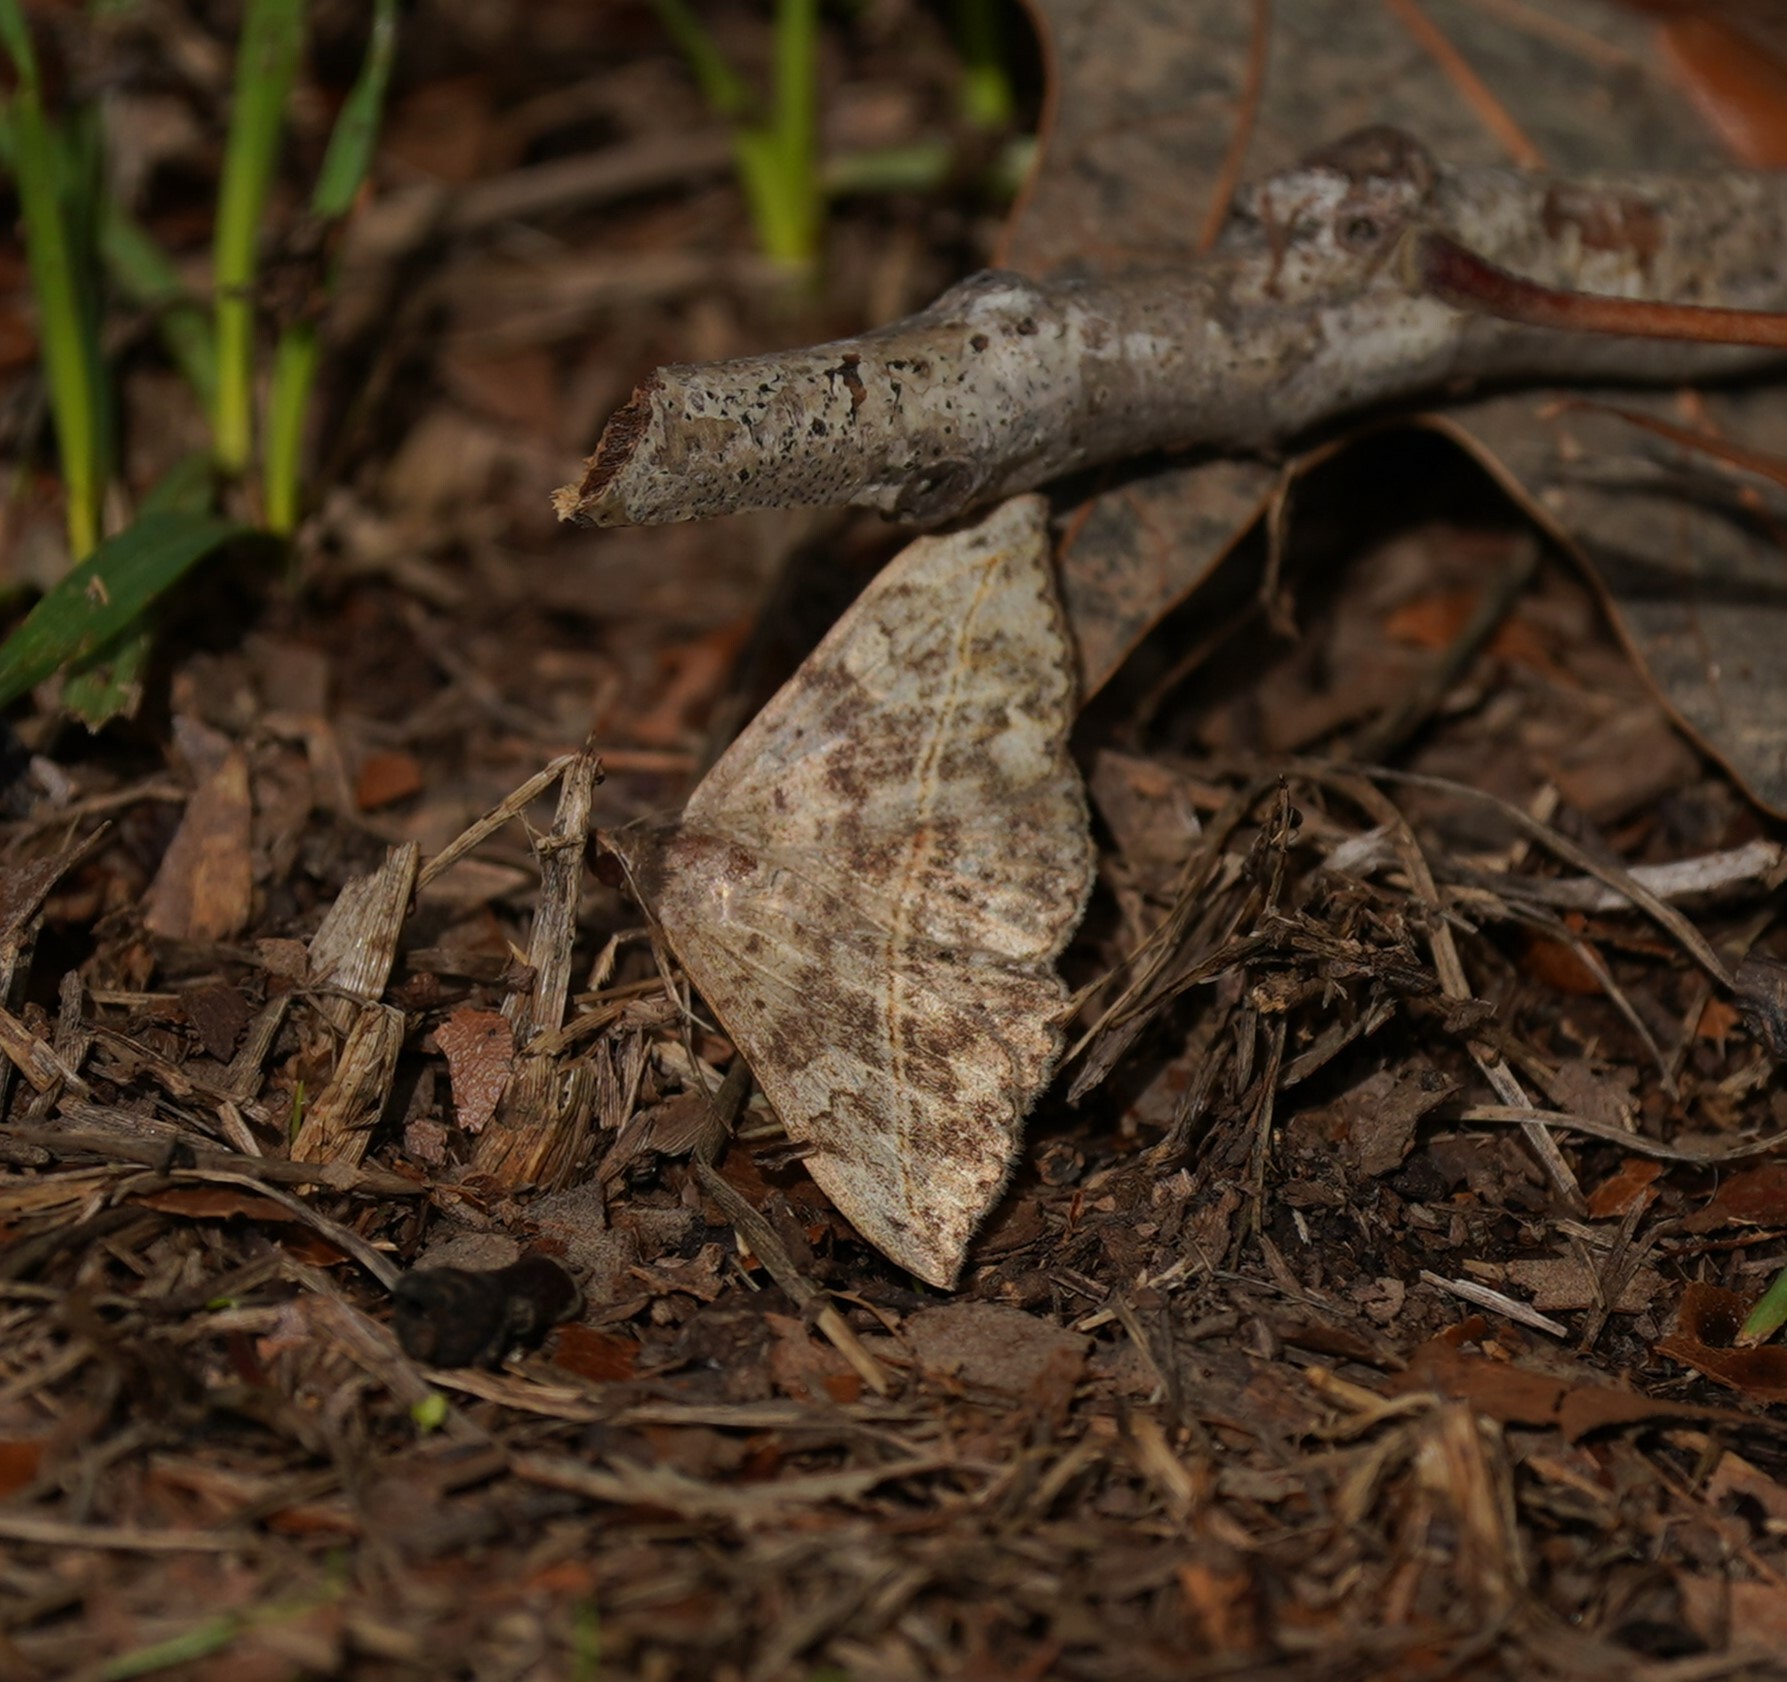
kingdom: Animalia
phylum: Arthropoda
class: Insecta
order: Lepidoptera
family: Erebidae
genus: Anticarsia
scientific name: Anticarsia gemmatalis
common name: Cutworm moth
